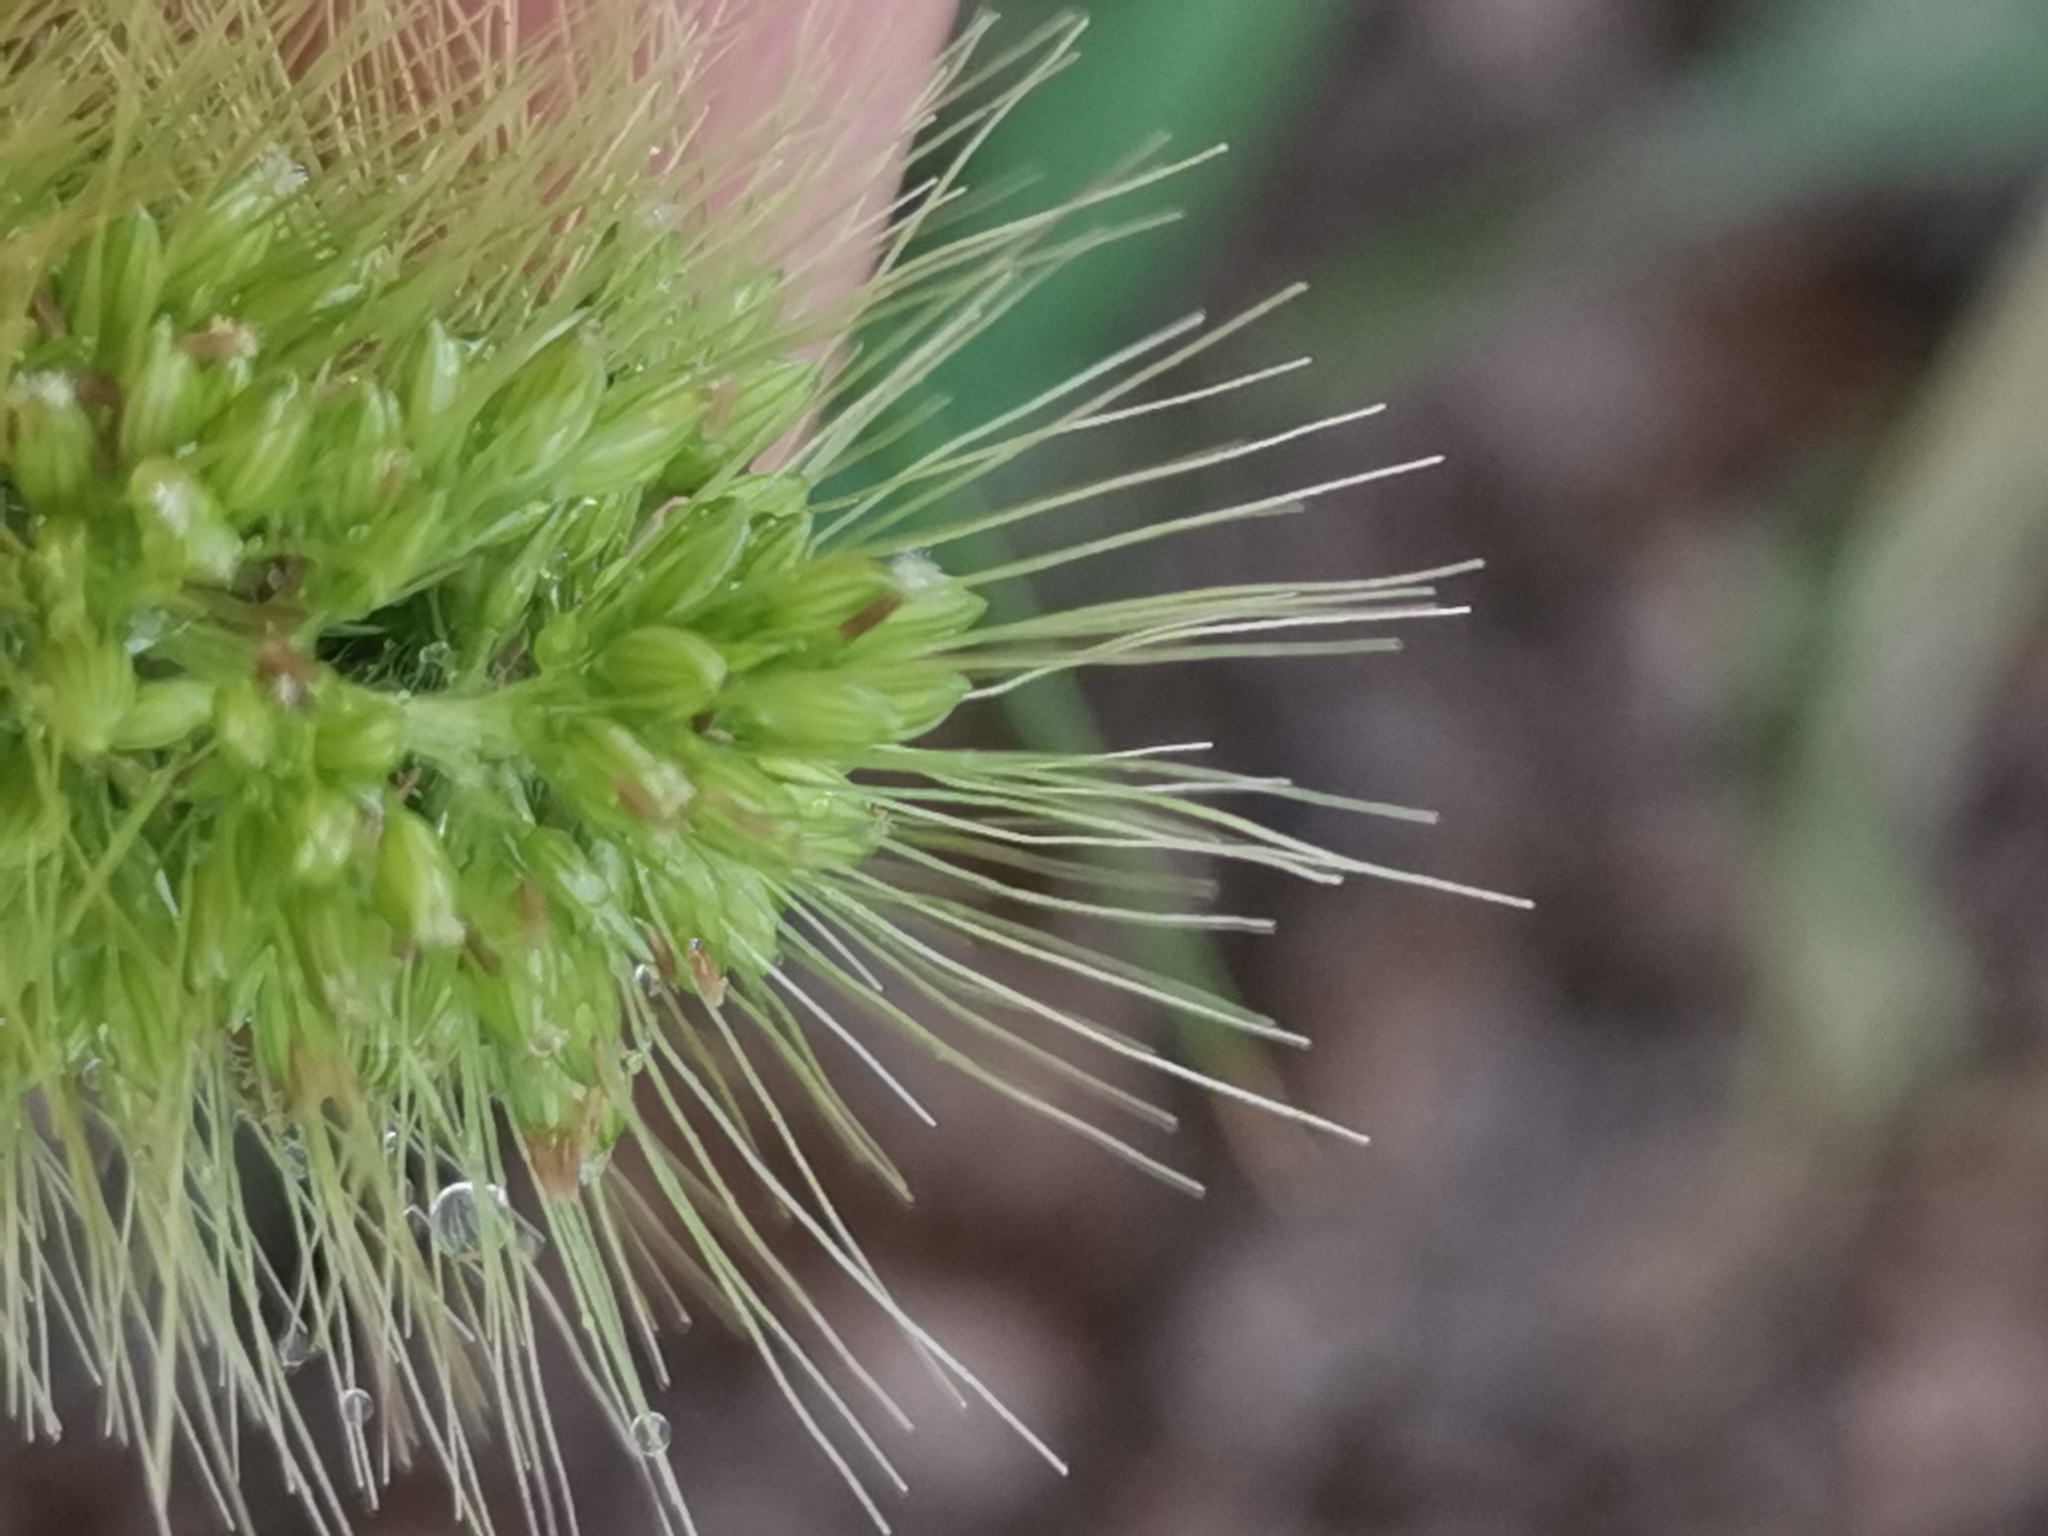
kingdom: Plantae
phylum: Tracheophyta
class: Liliopsida
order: Poales
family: Poaceae
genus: Setaria
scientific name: Setaria viridis
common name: Green bristlegrass
